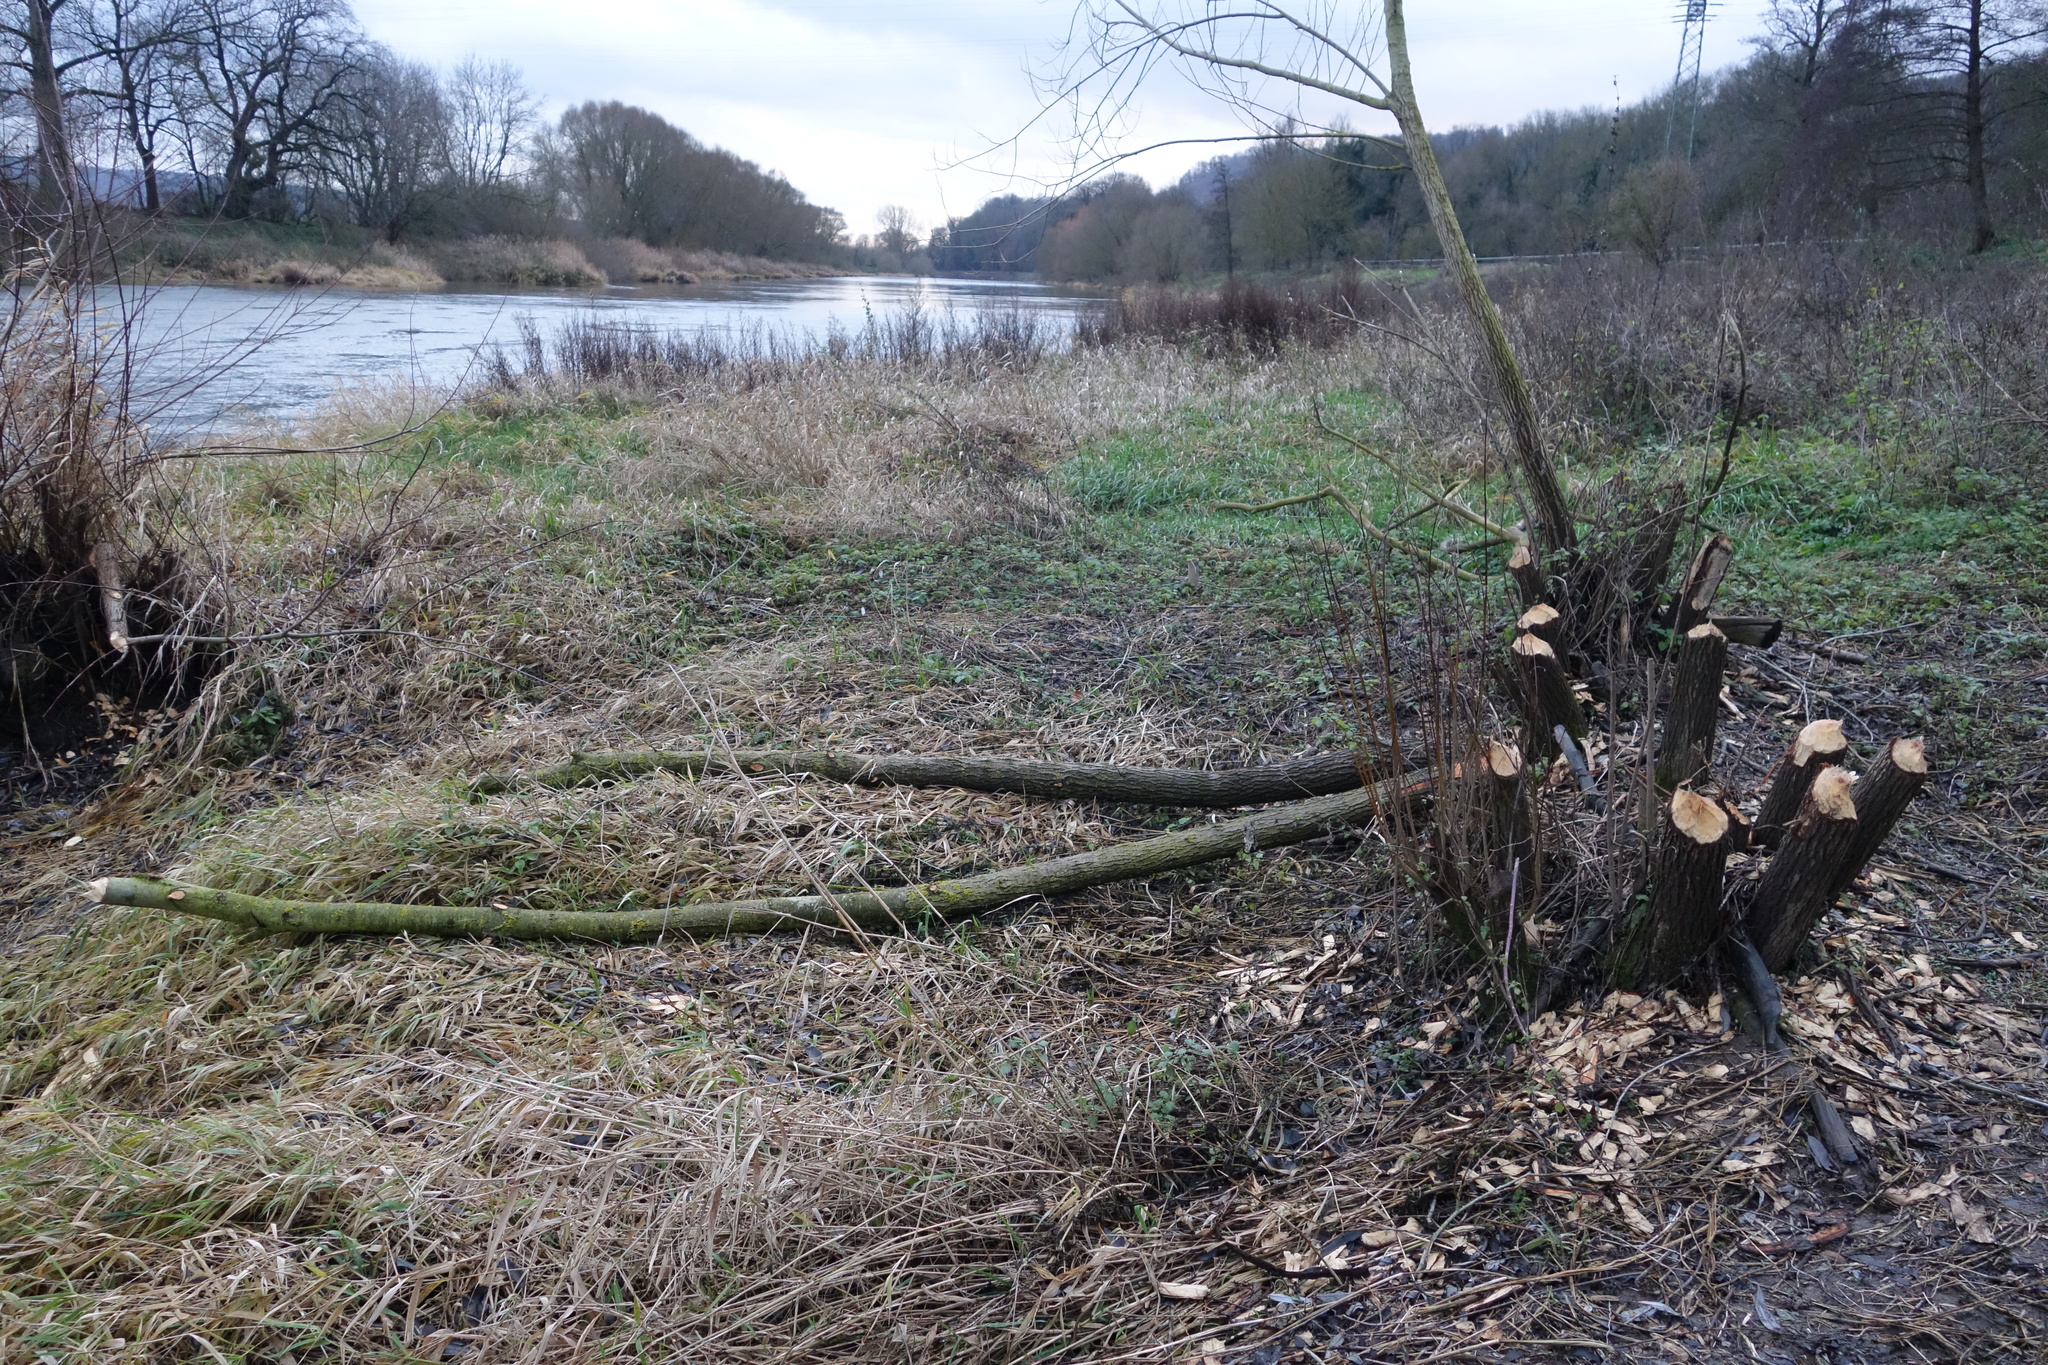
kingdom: Animalia
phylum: Chordata
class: Mammalia
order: Rodentia
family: Castoridae
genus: Castor
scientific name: Castor fiber
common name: Eurasian beaver
